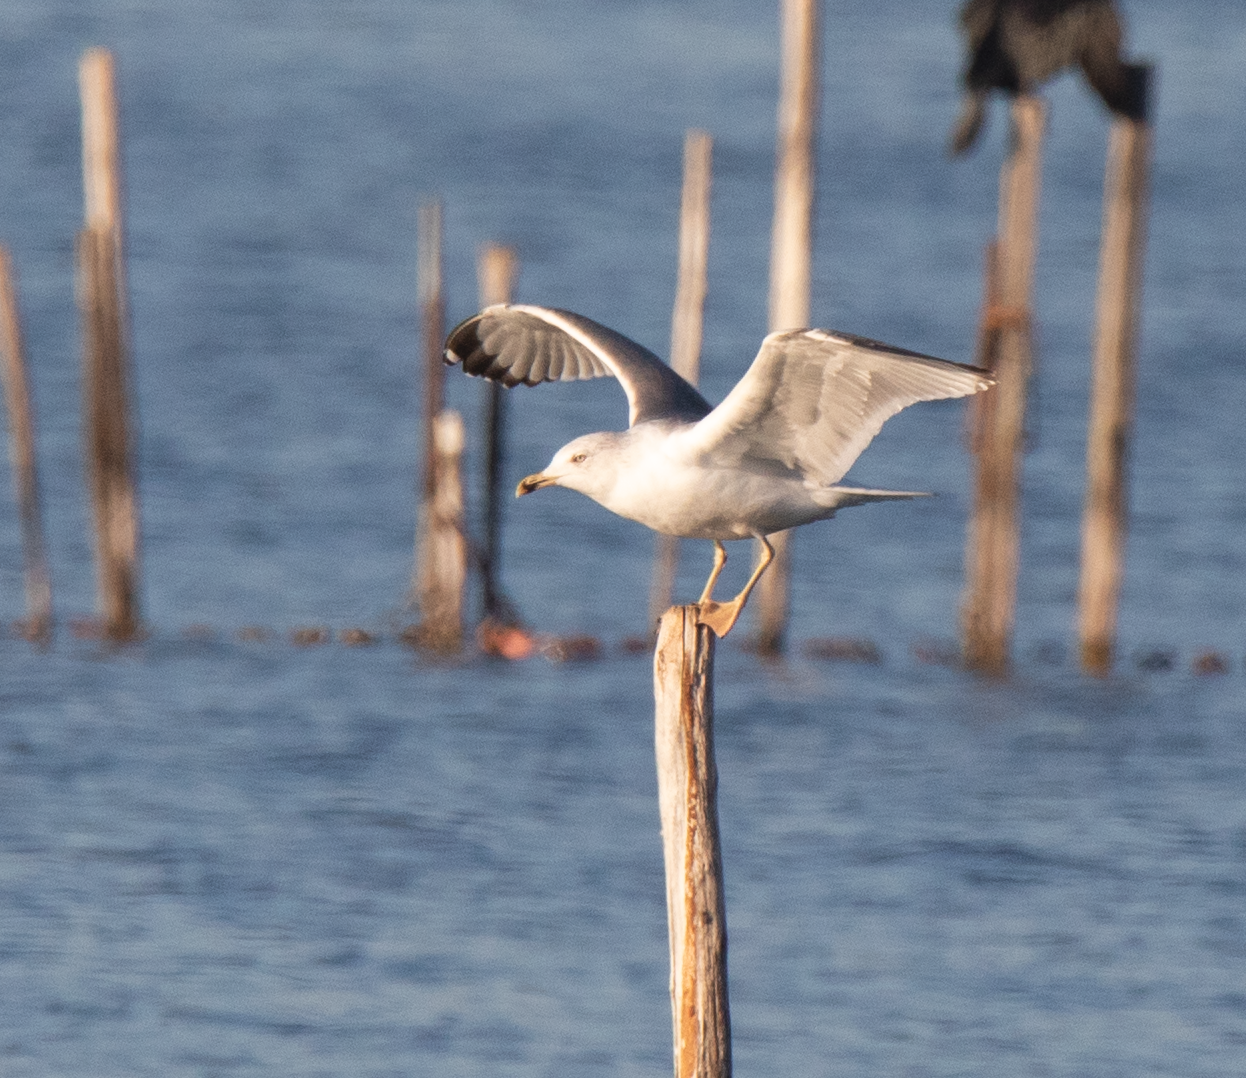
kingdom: Animalia
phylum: Chordata
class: Aves
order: Charadriiformes
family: Laridae
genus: Larus
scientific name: Larus michahellis
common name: Yellow-legged gull
